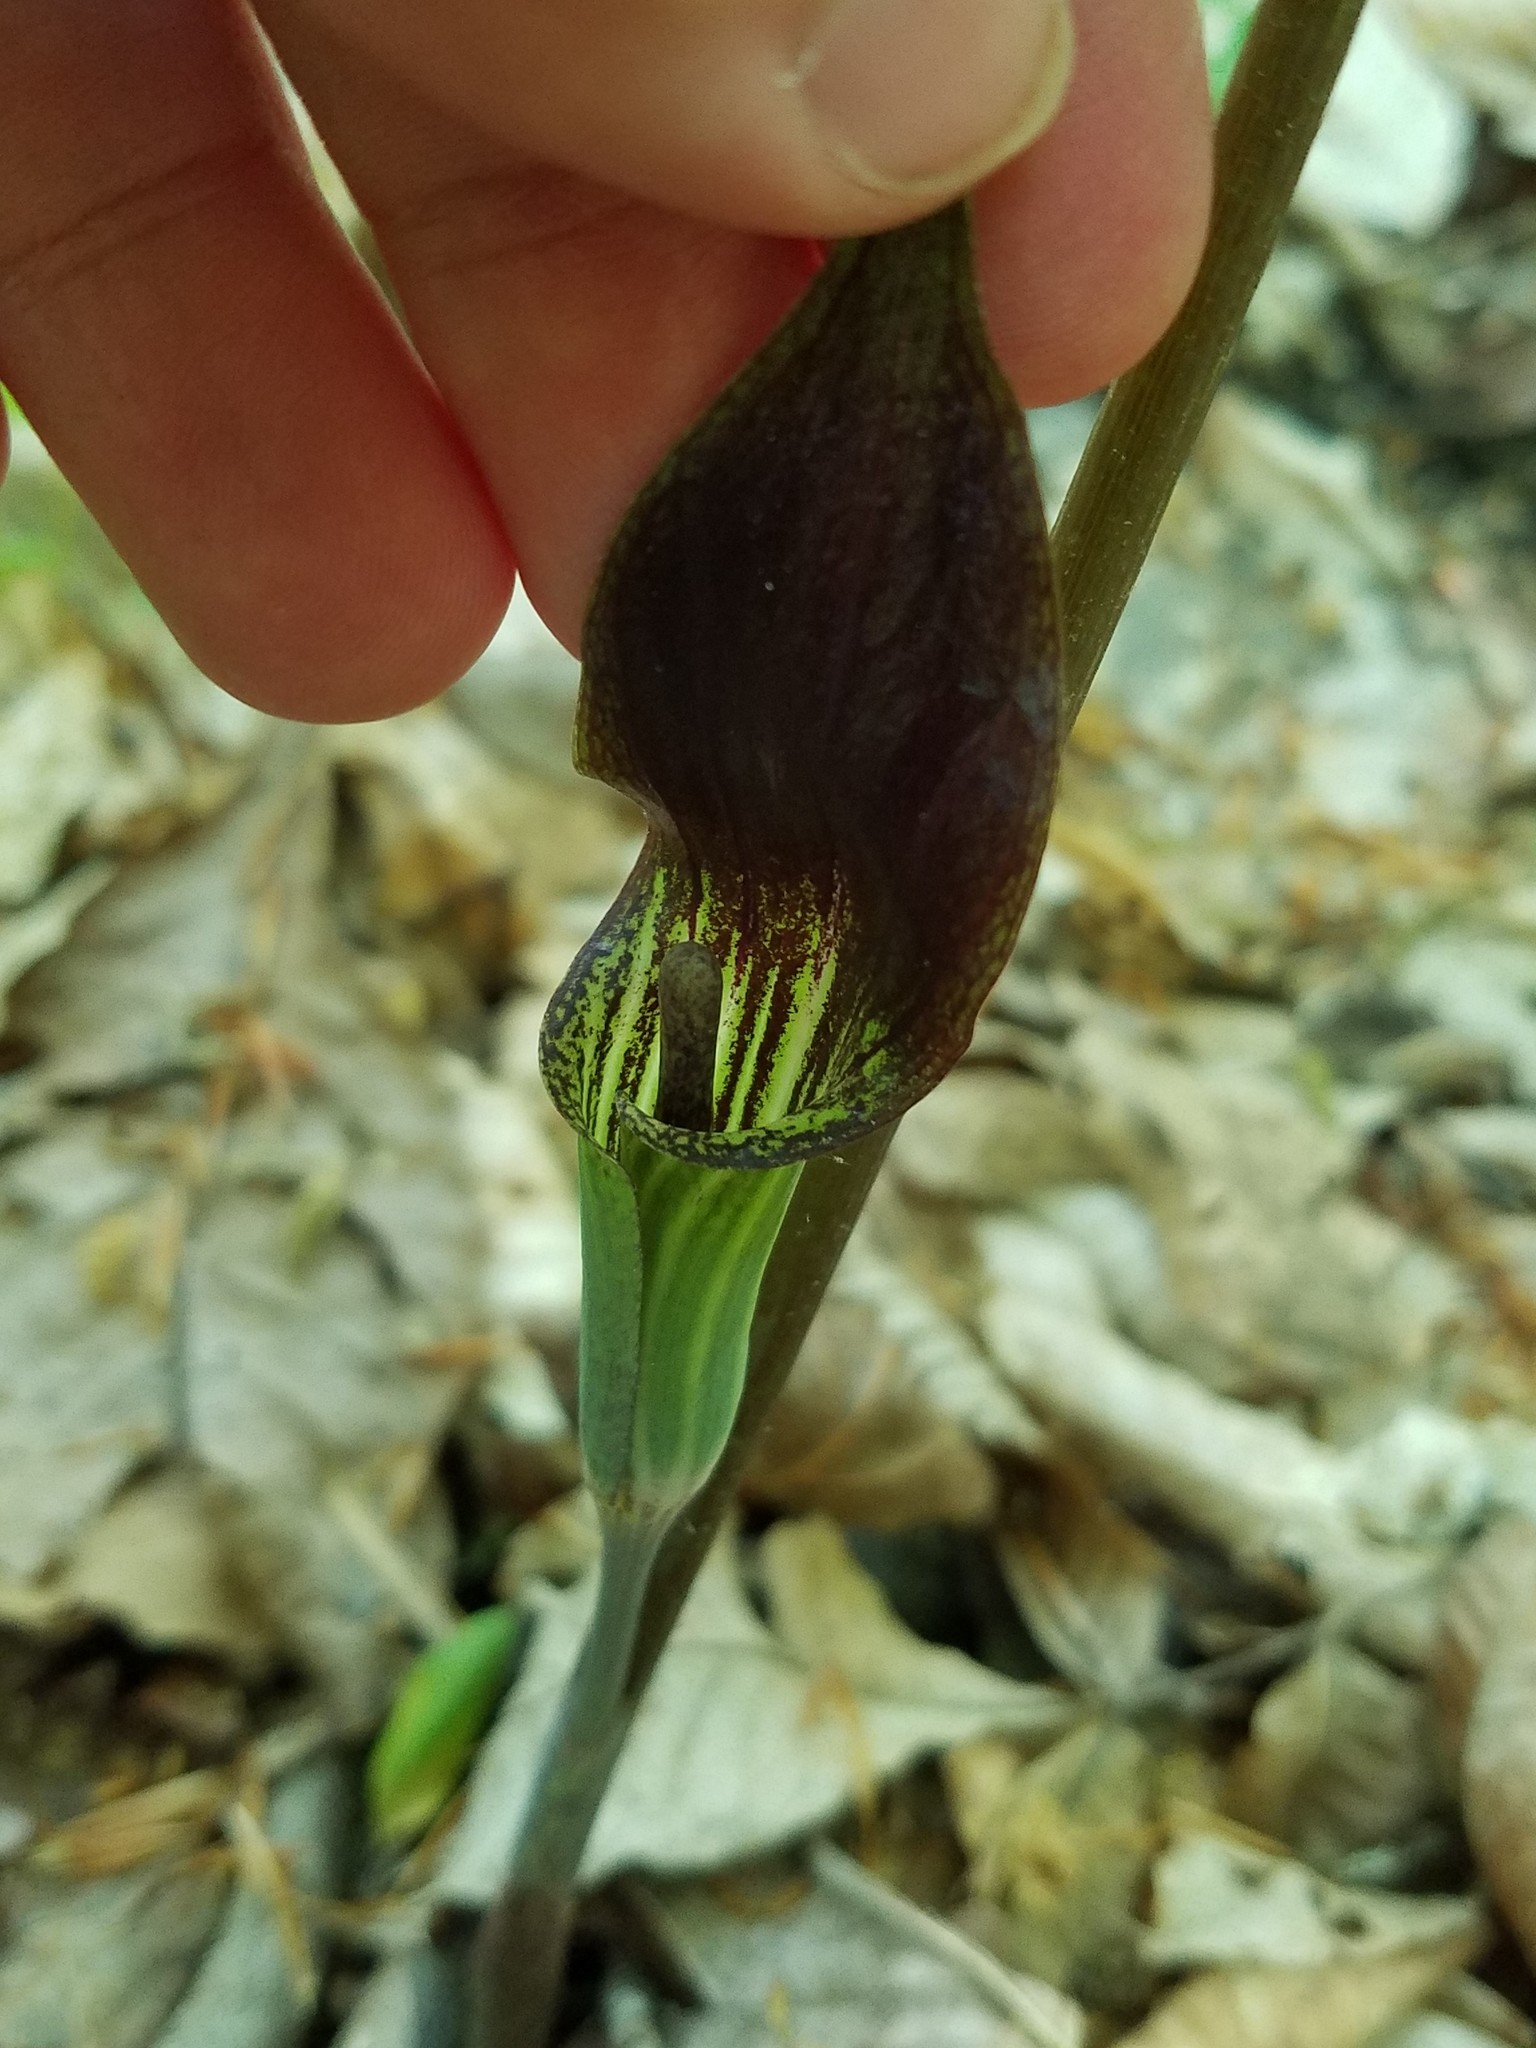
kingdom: Plantae
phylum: Tracheophyta
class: Liliopsida
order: Alismatales
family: Araceae
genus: Arisaema
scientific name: Arisaema triphyllum
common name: Jack-in-the-pulpit
